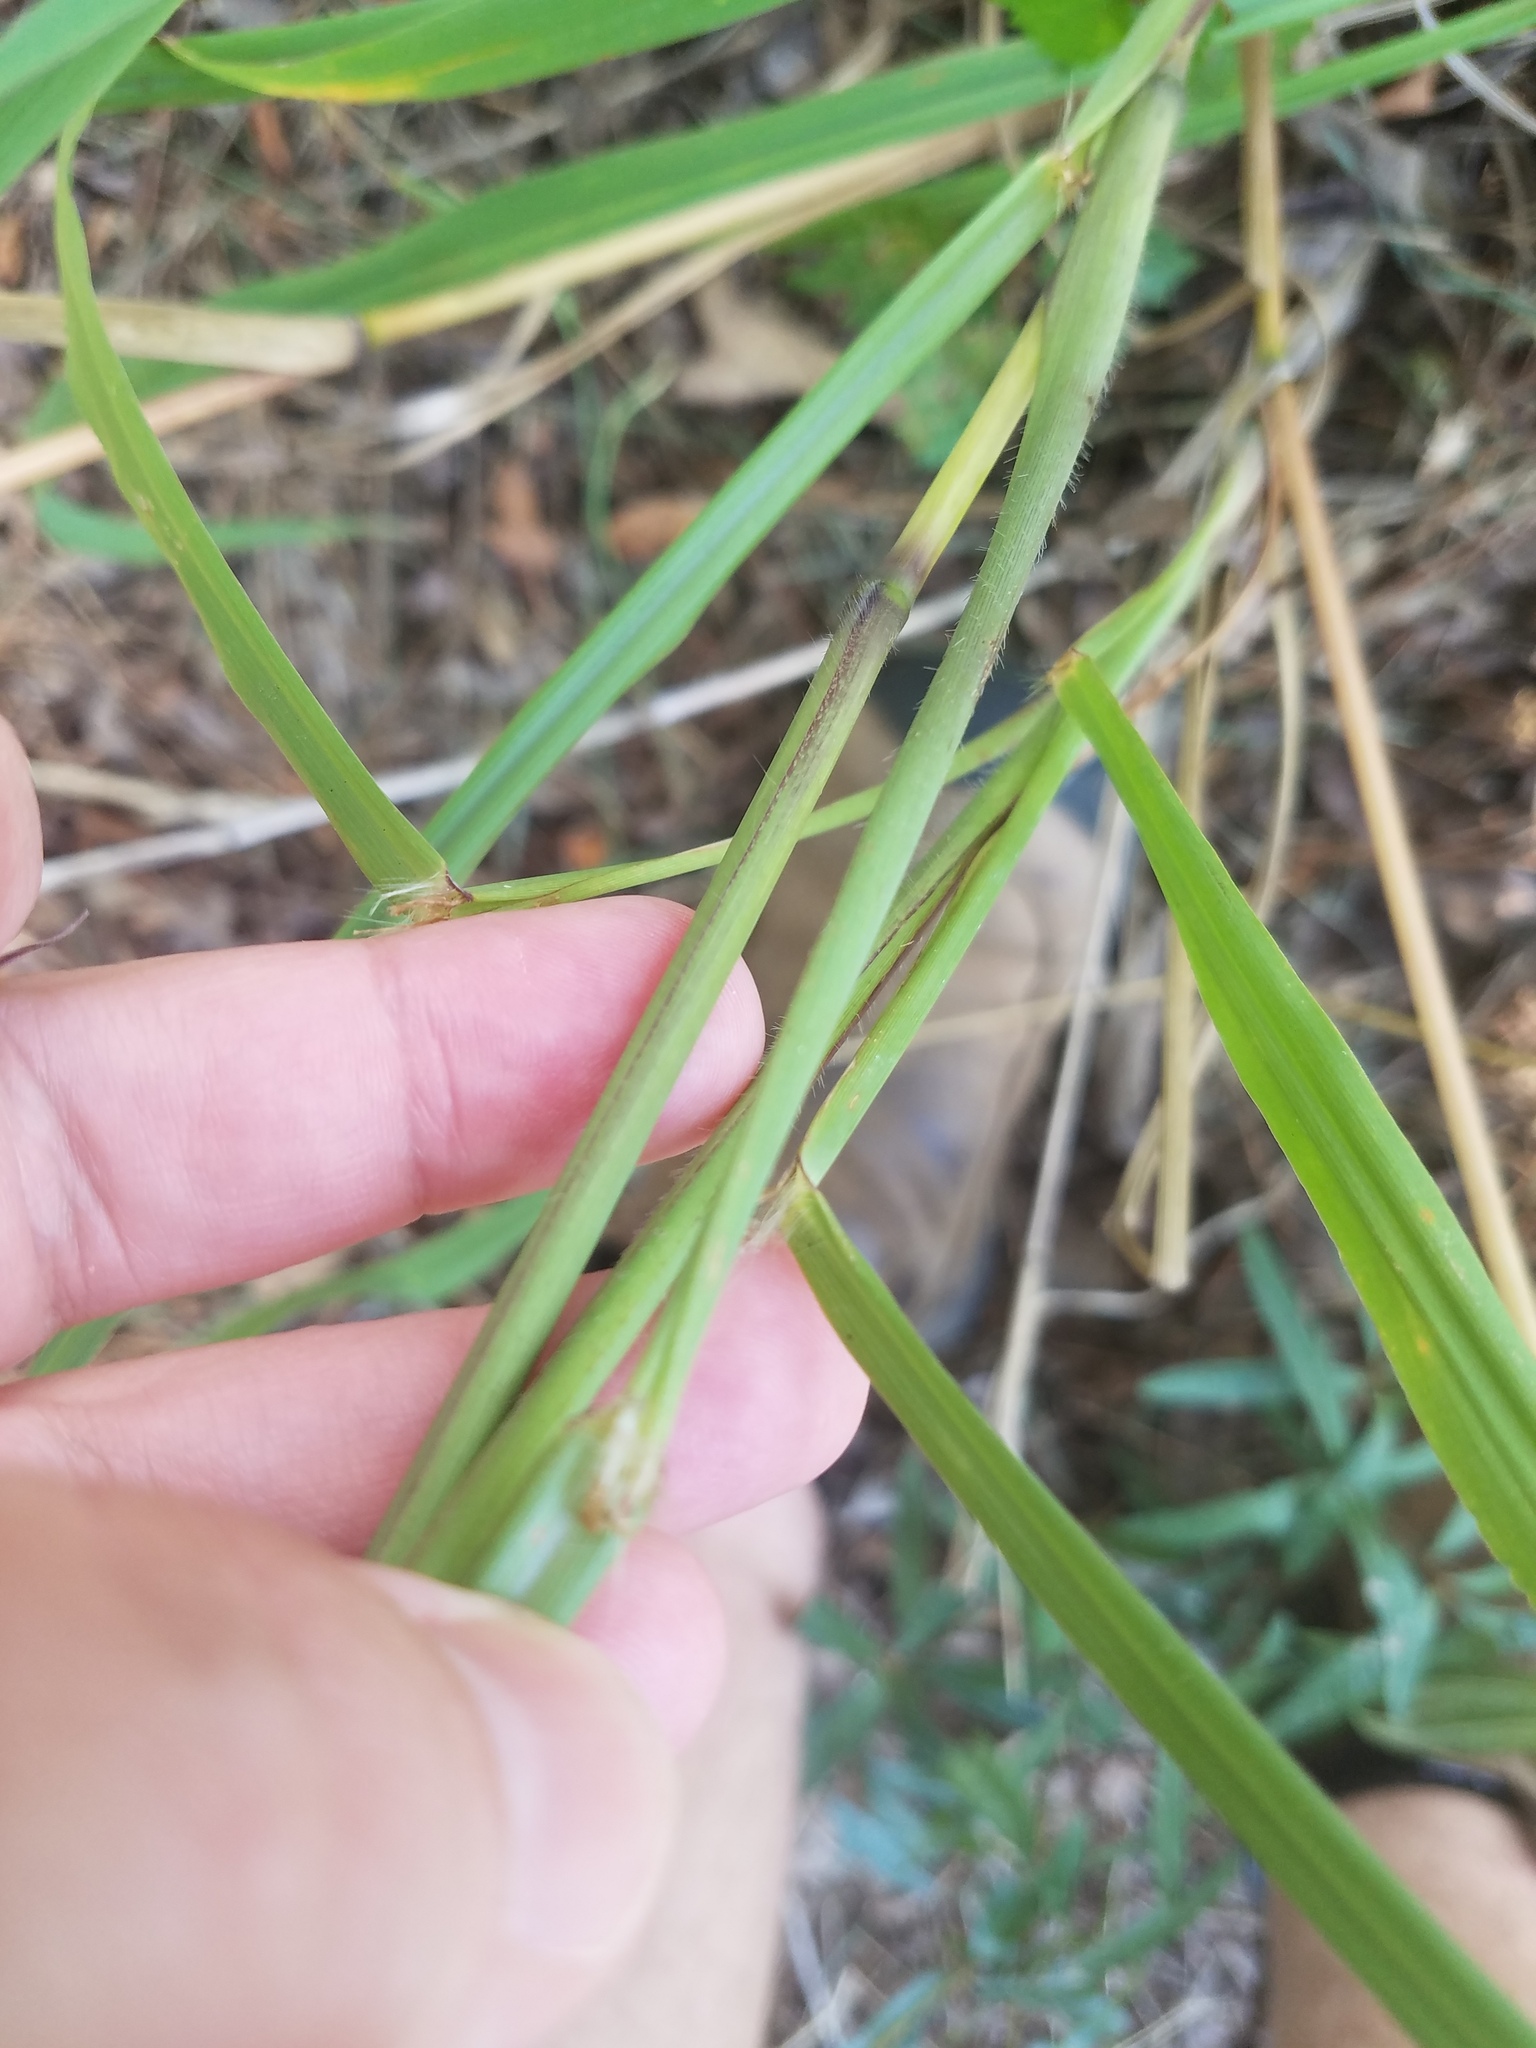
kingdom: Plantae
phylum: Tracheophyta
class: Liliopsida
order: Poales
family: Poaceae
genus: Paspalum
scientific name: Paspalum urvillei
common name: Vasey's grass
